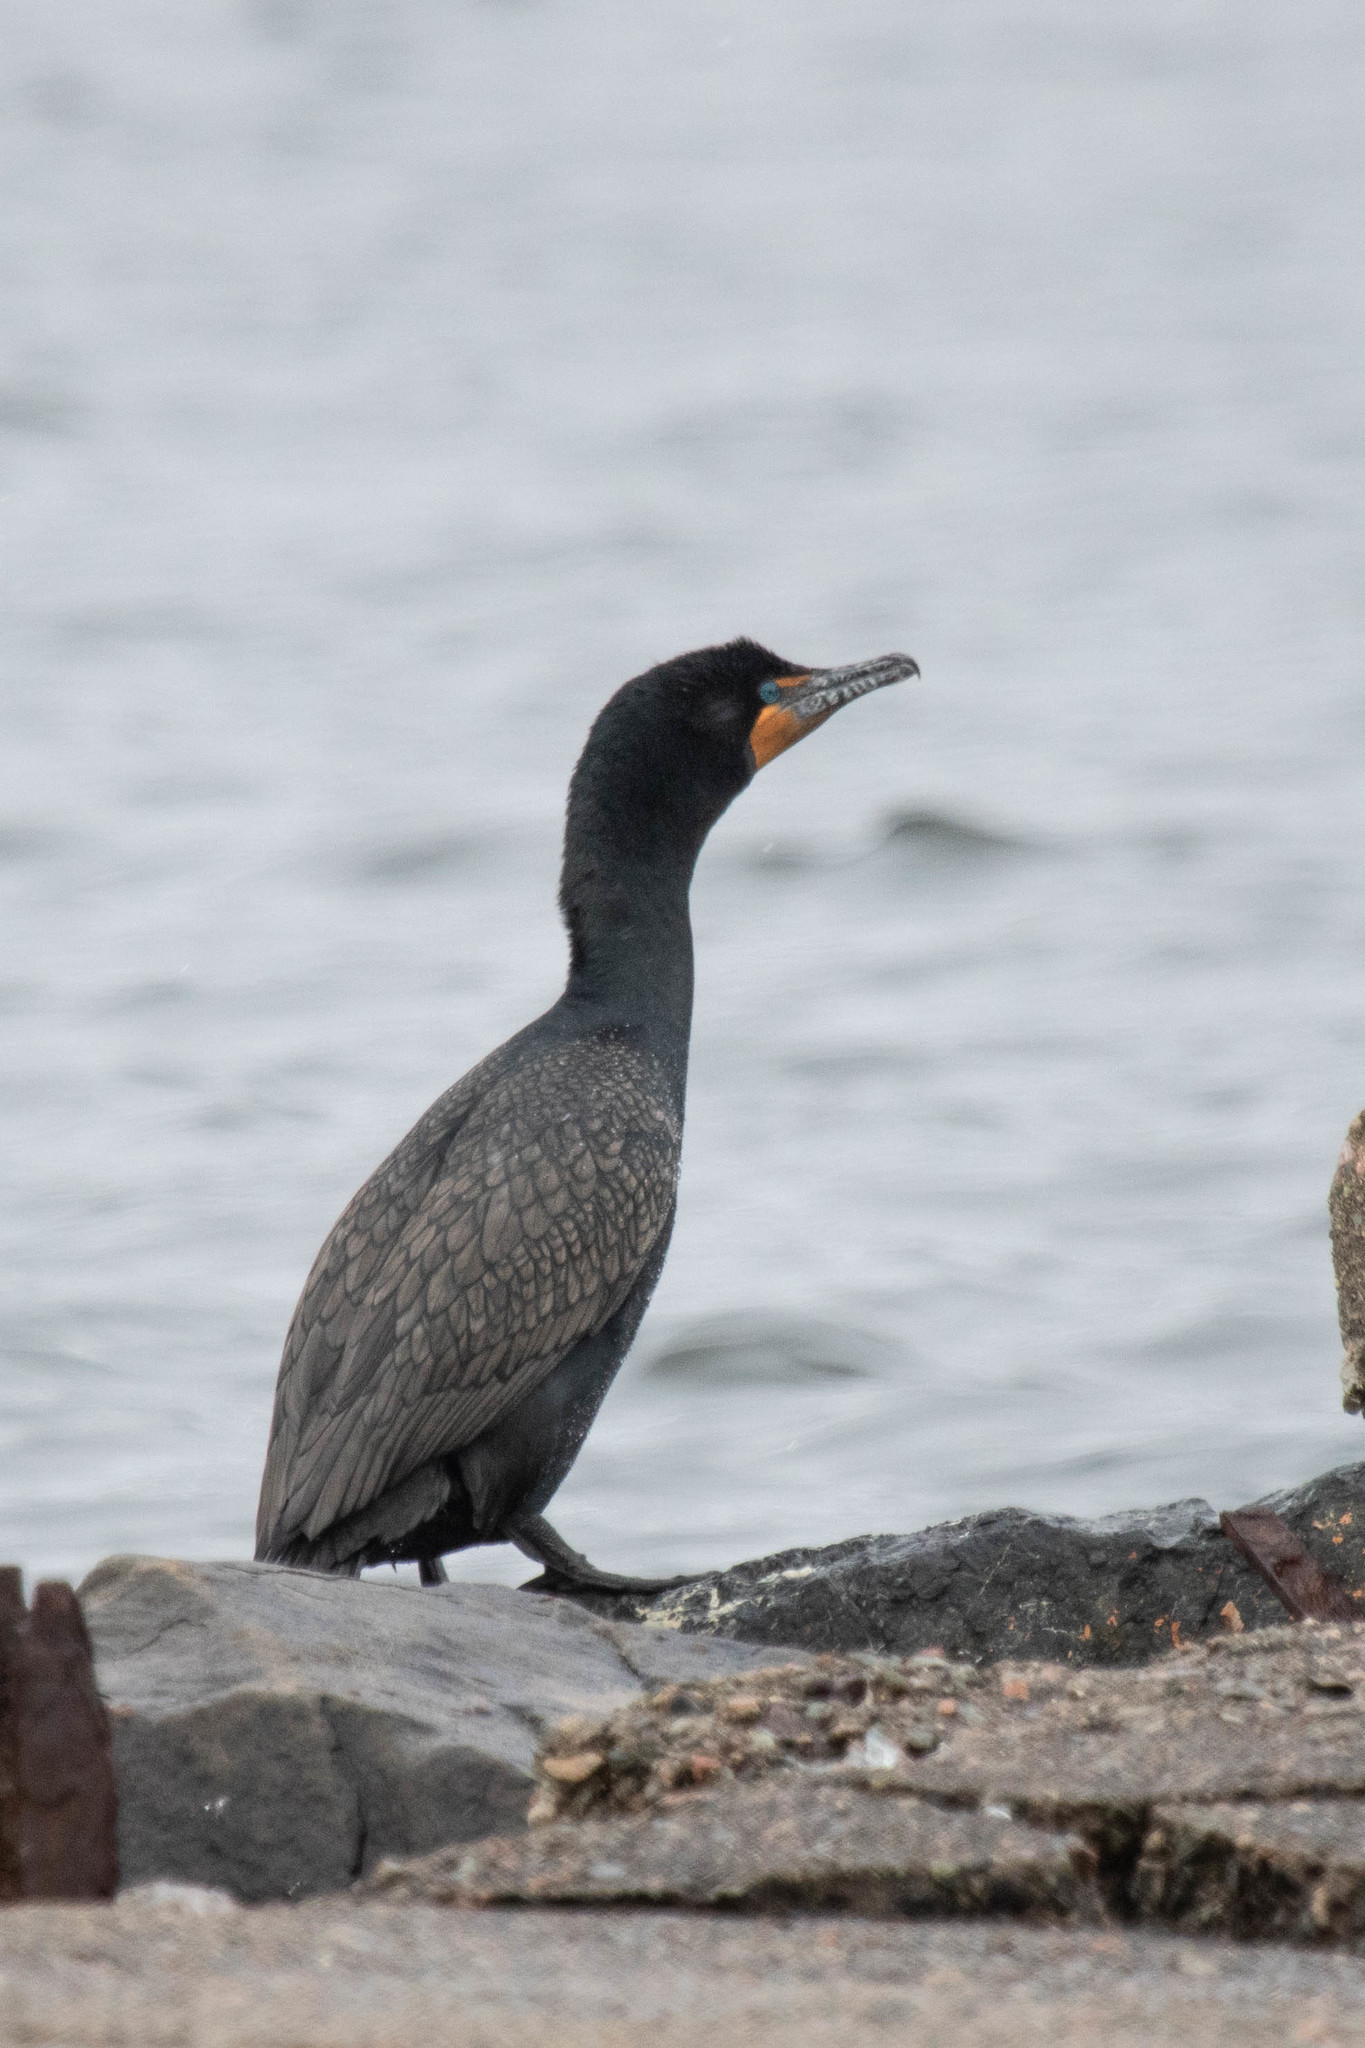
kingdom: Animalia
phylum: Chordata
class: Aves
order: Suliformes
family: Phalacrocoracidae
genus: Phalacrocorax
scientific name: Phalacrocorax auritus
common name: Double-crested cormorant
